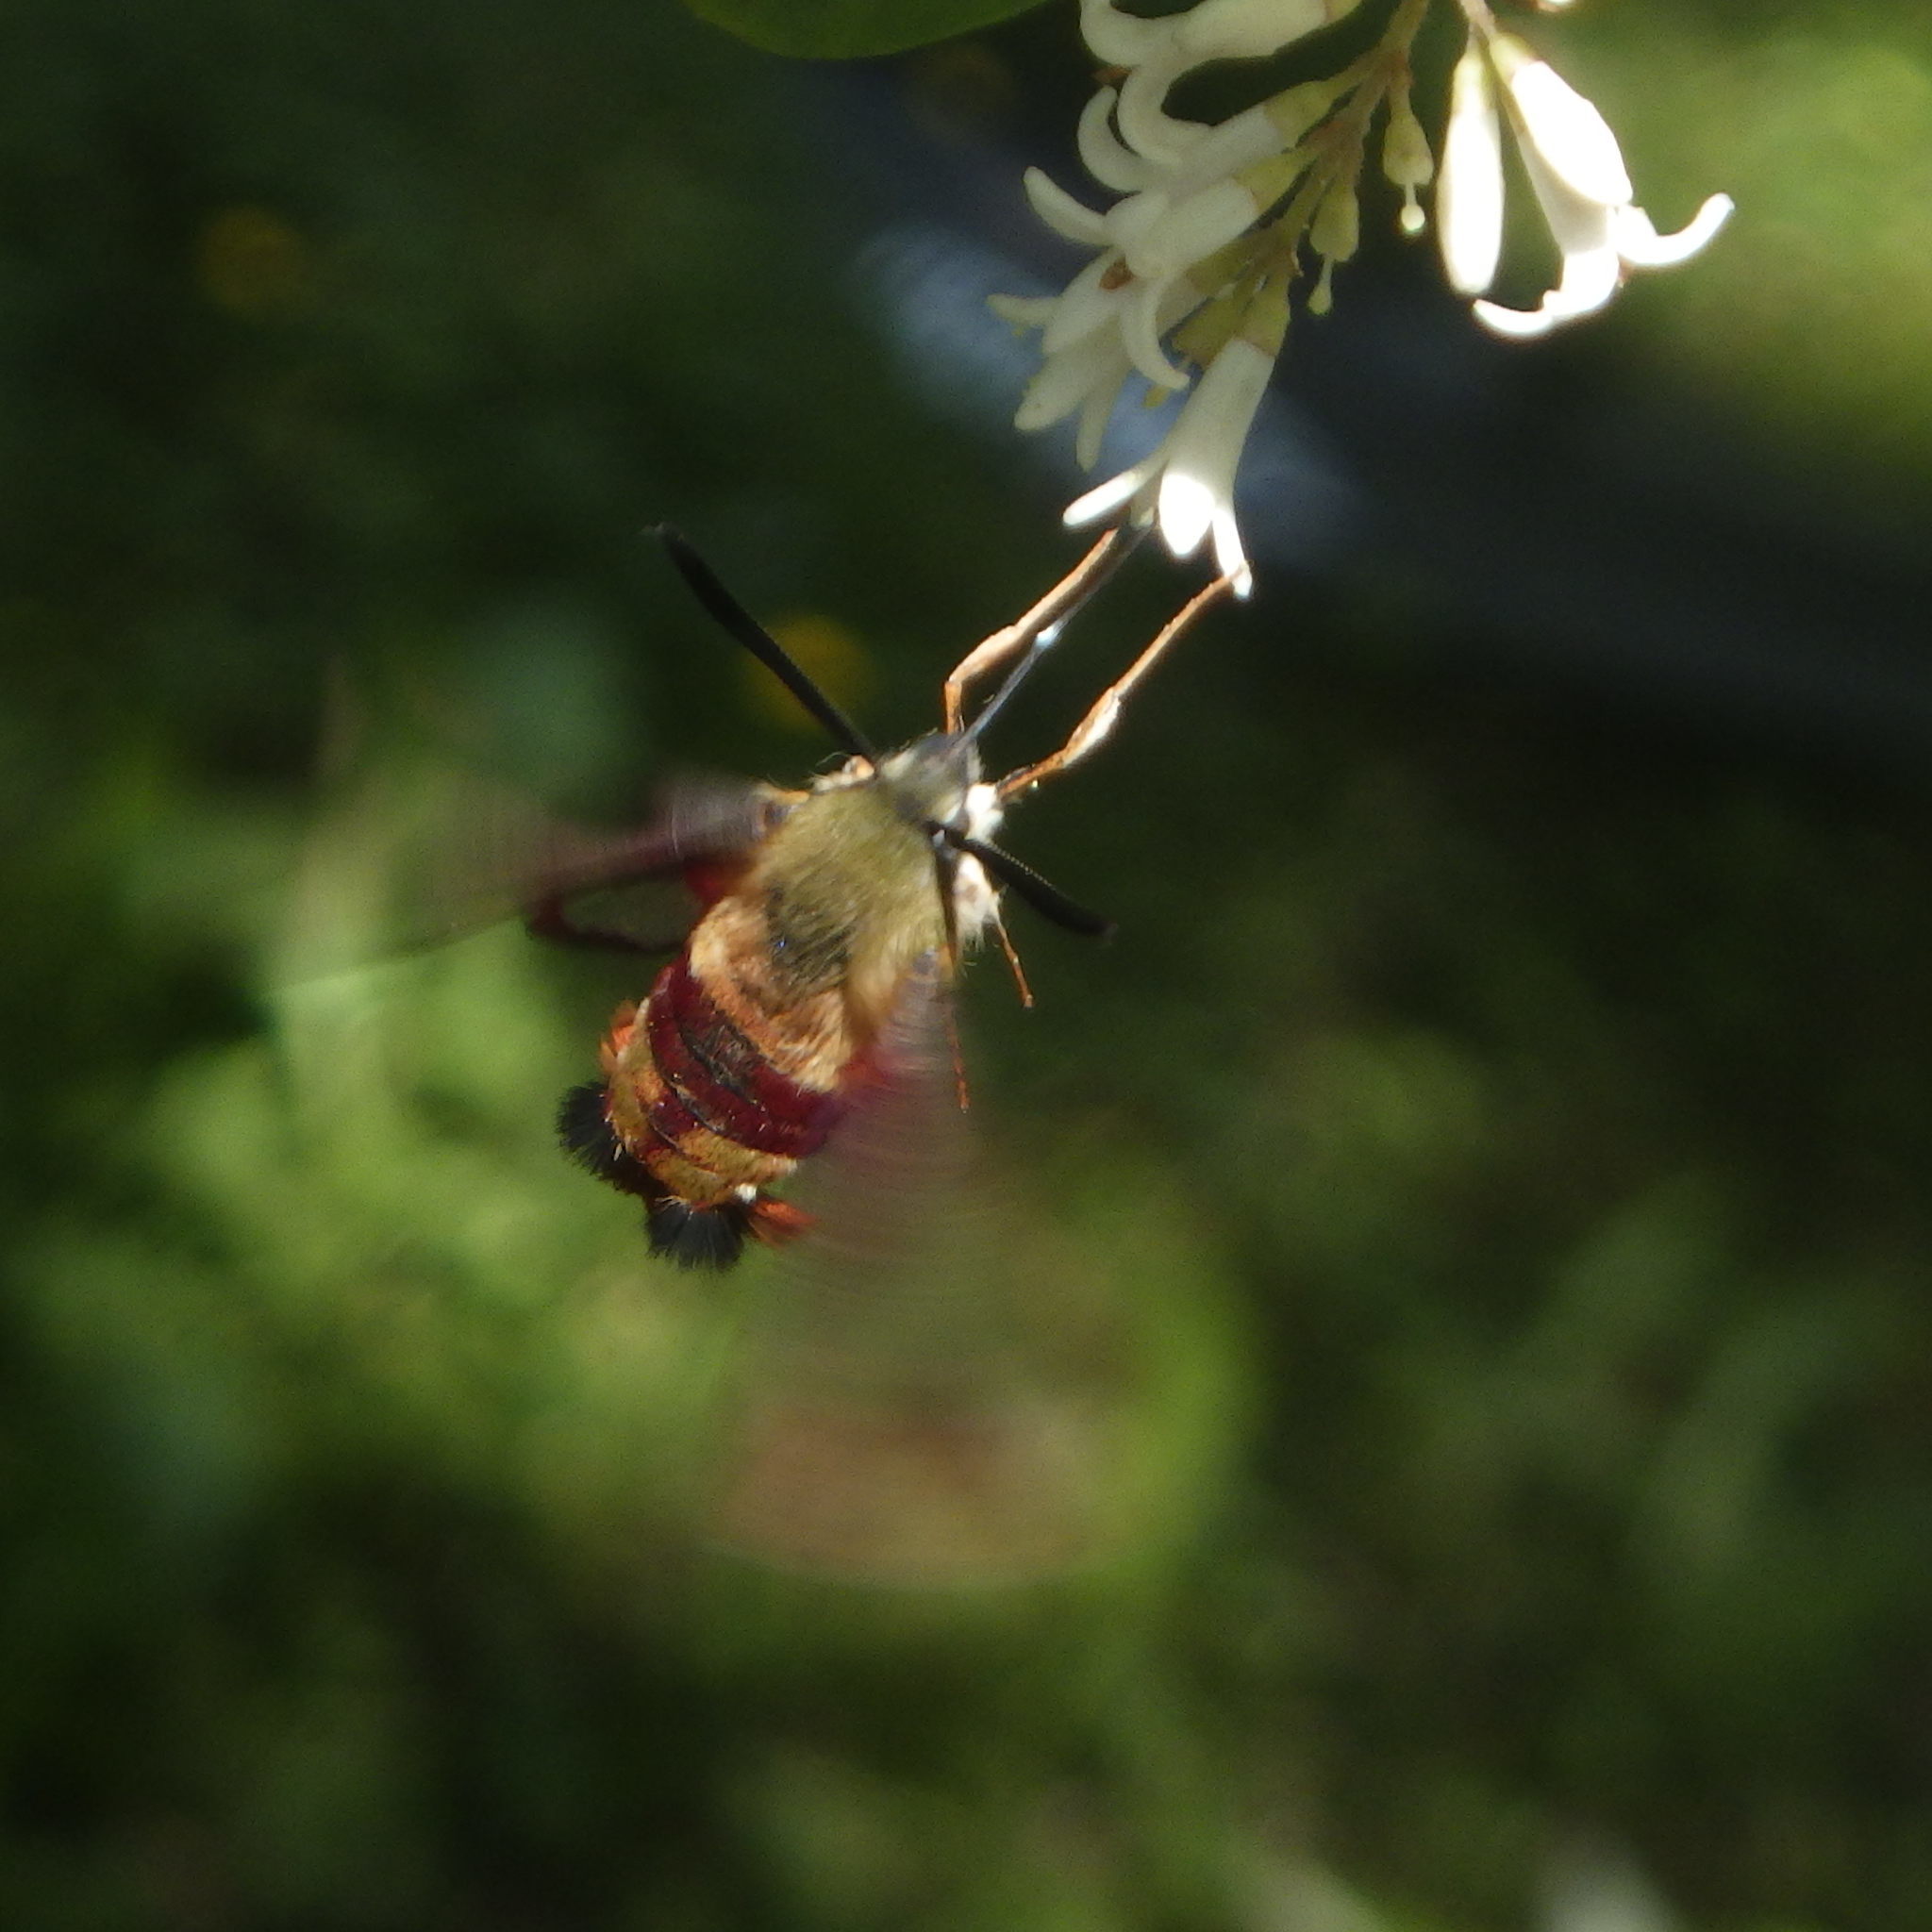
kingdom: Animalia
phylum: Arthropoda
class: Insecta
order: Lepidoptera
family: Sphingidae
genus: Hemaris
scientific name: Hemaris thysbe
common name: Common clear-wing
